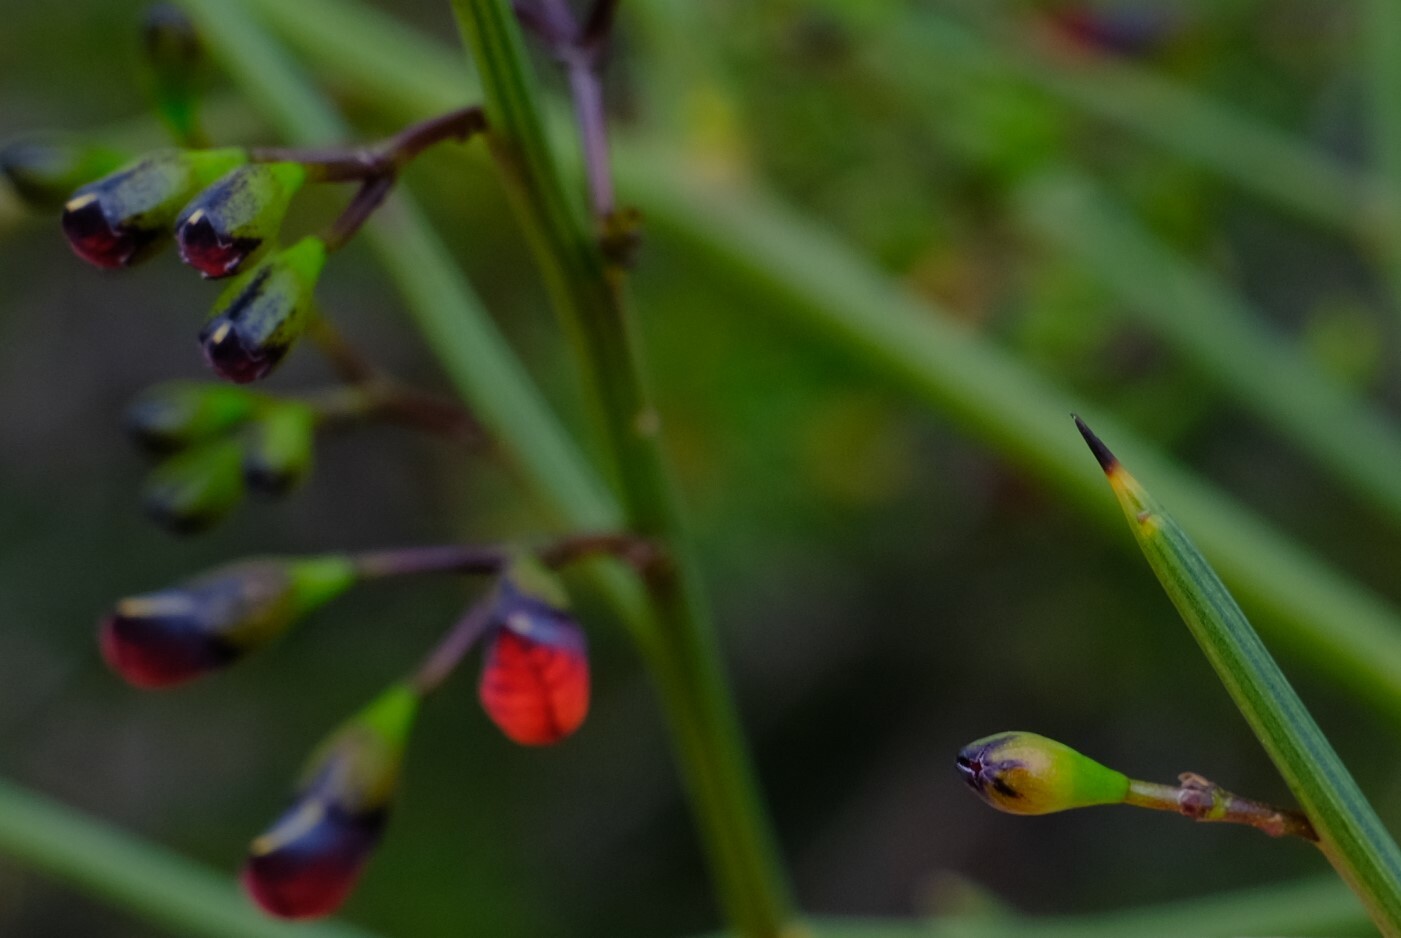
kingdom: Plantae
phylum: Tracheophyta
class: Magnoliopsida
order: Fabales
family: Fabaceae
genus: Daviesia
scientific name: Daviesia divaricata
